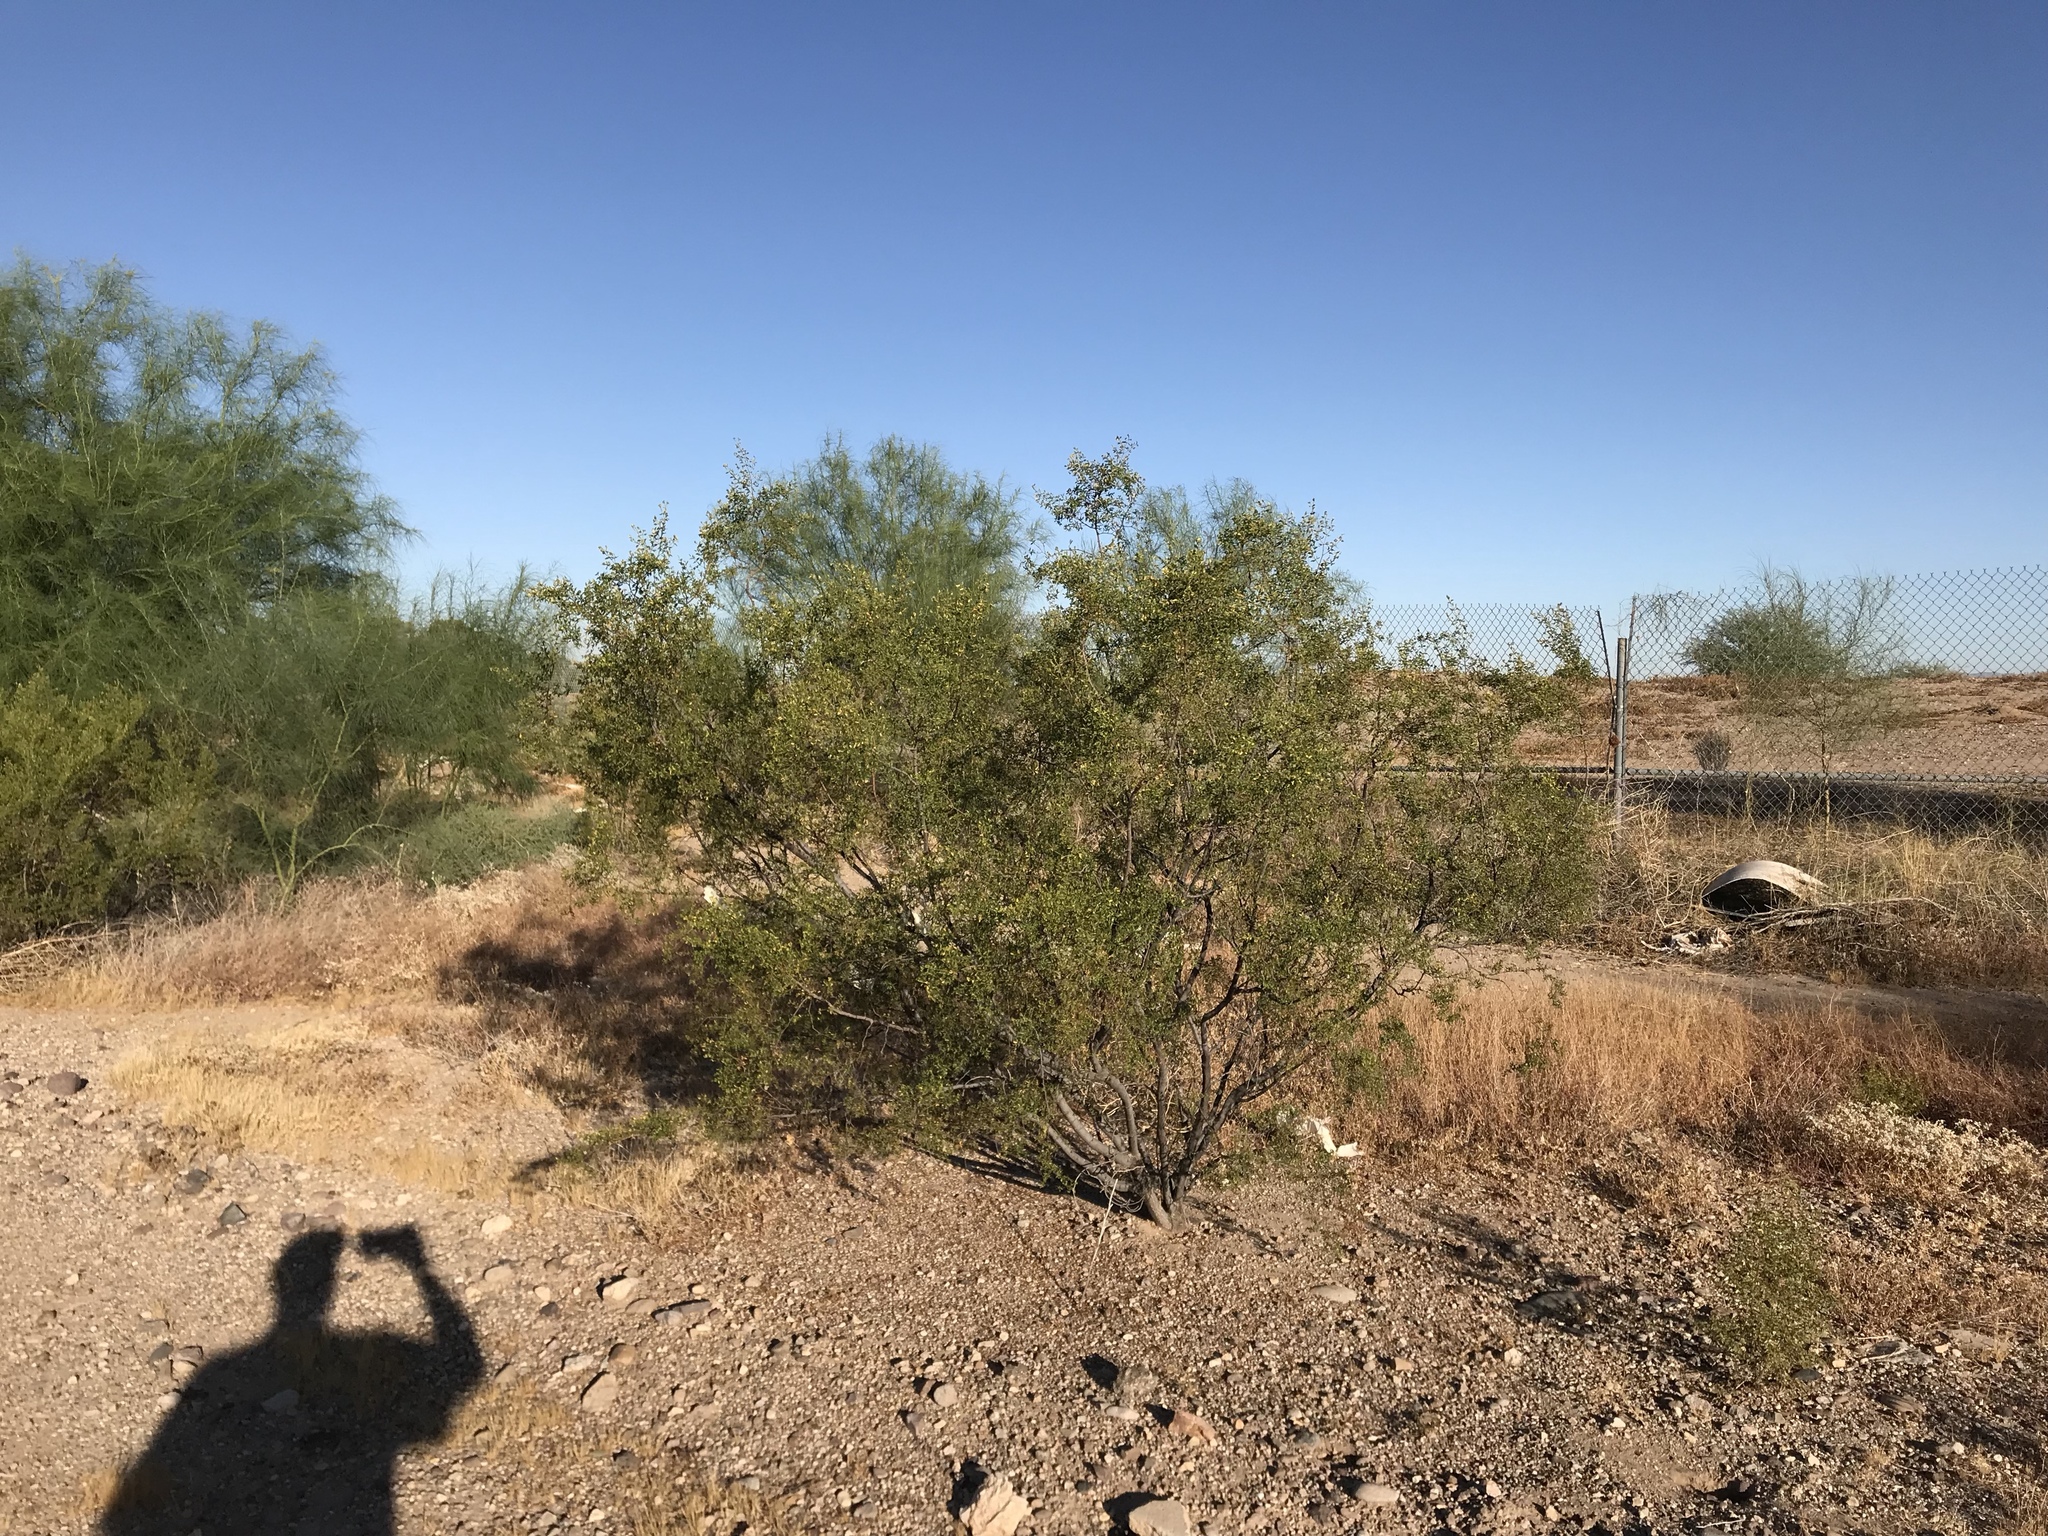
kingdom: Plantae
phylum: Tracheophyta
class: Magnoliopsida
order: Zygophyllales
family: Zygophyllaceae
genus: Larrea
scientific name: Larrea tridentata
